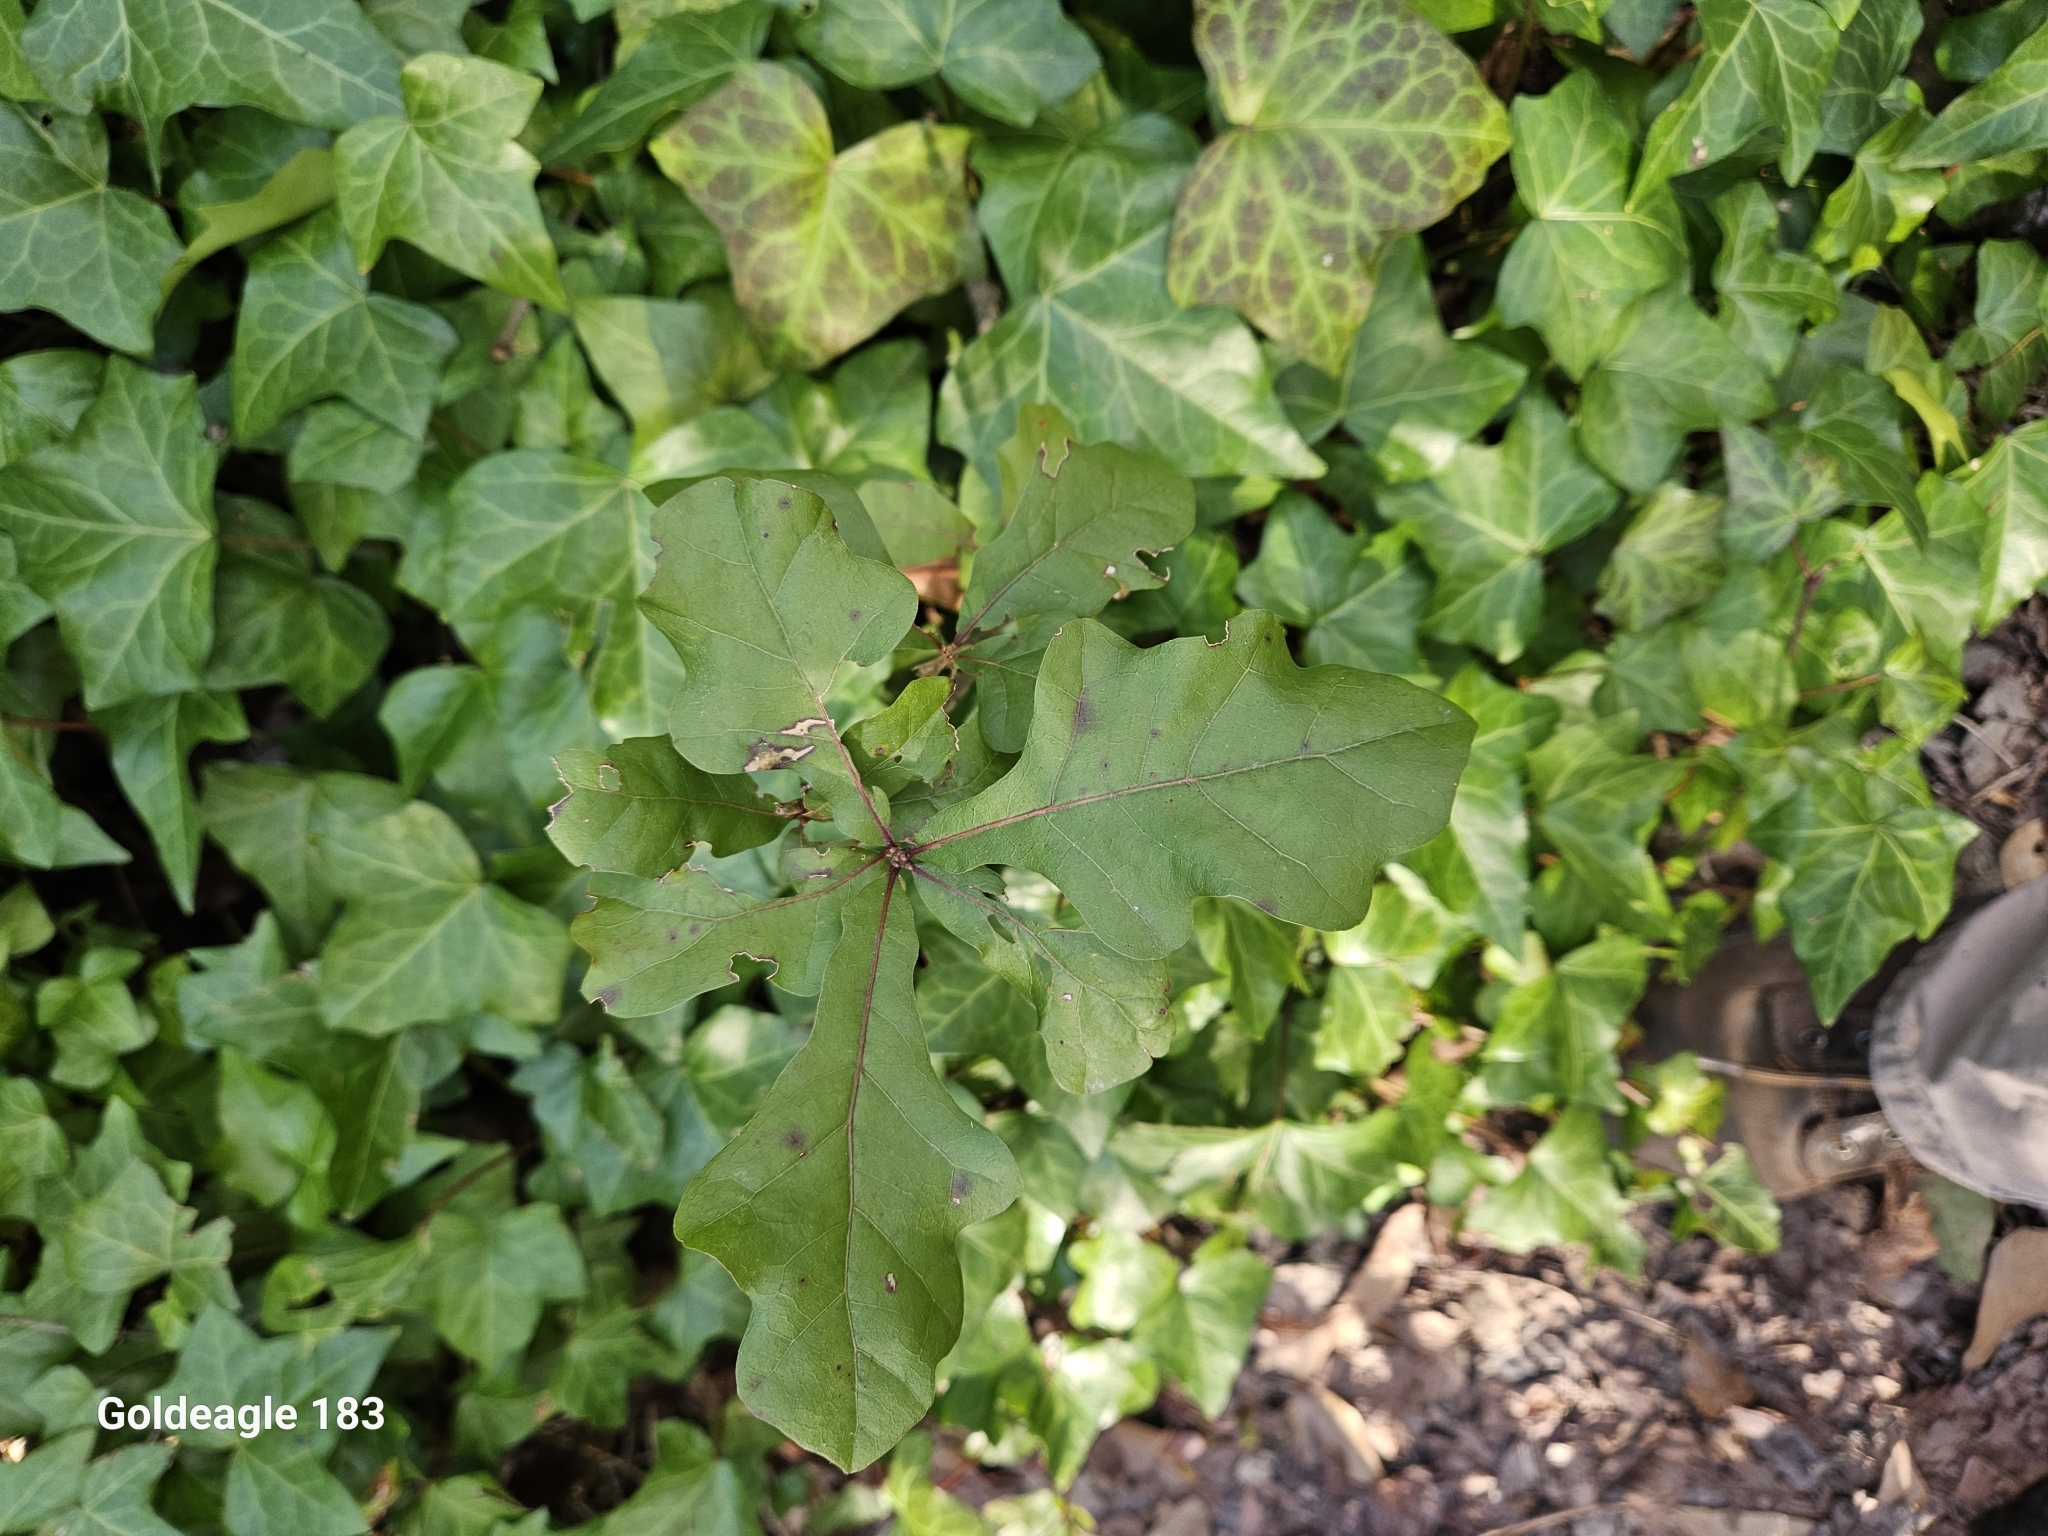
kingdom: Plantae
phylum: Tracheophyta
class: Magnoliopsida
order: Fagales
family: Fagaceae
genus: Quercus
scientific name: Quercus nigra
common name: Water oak
